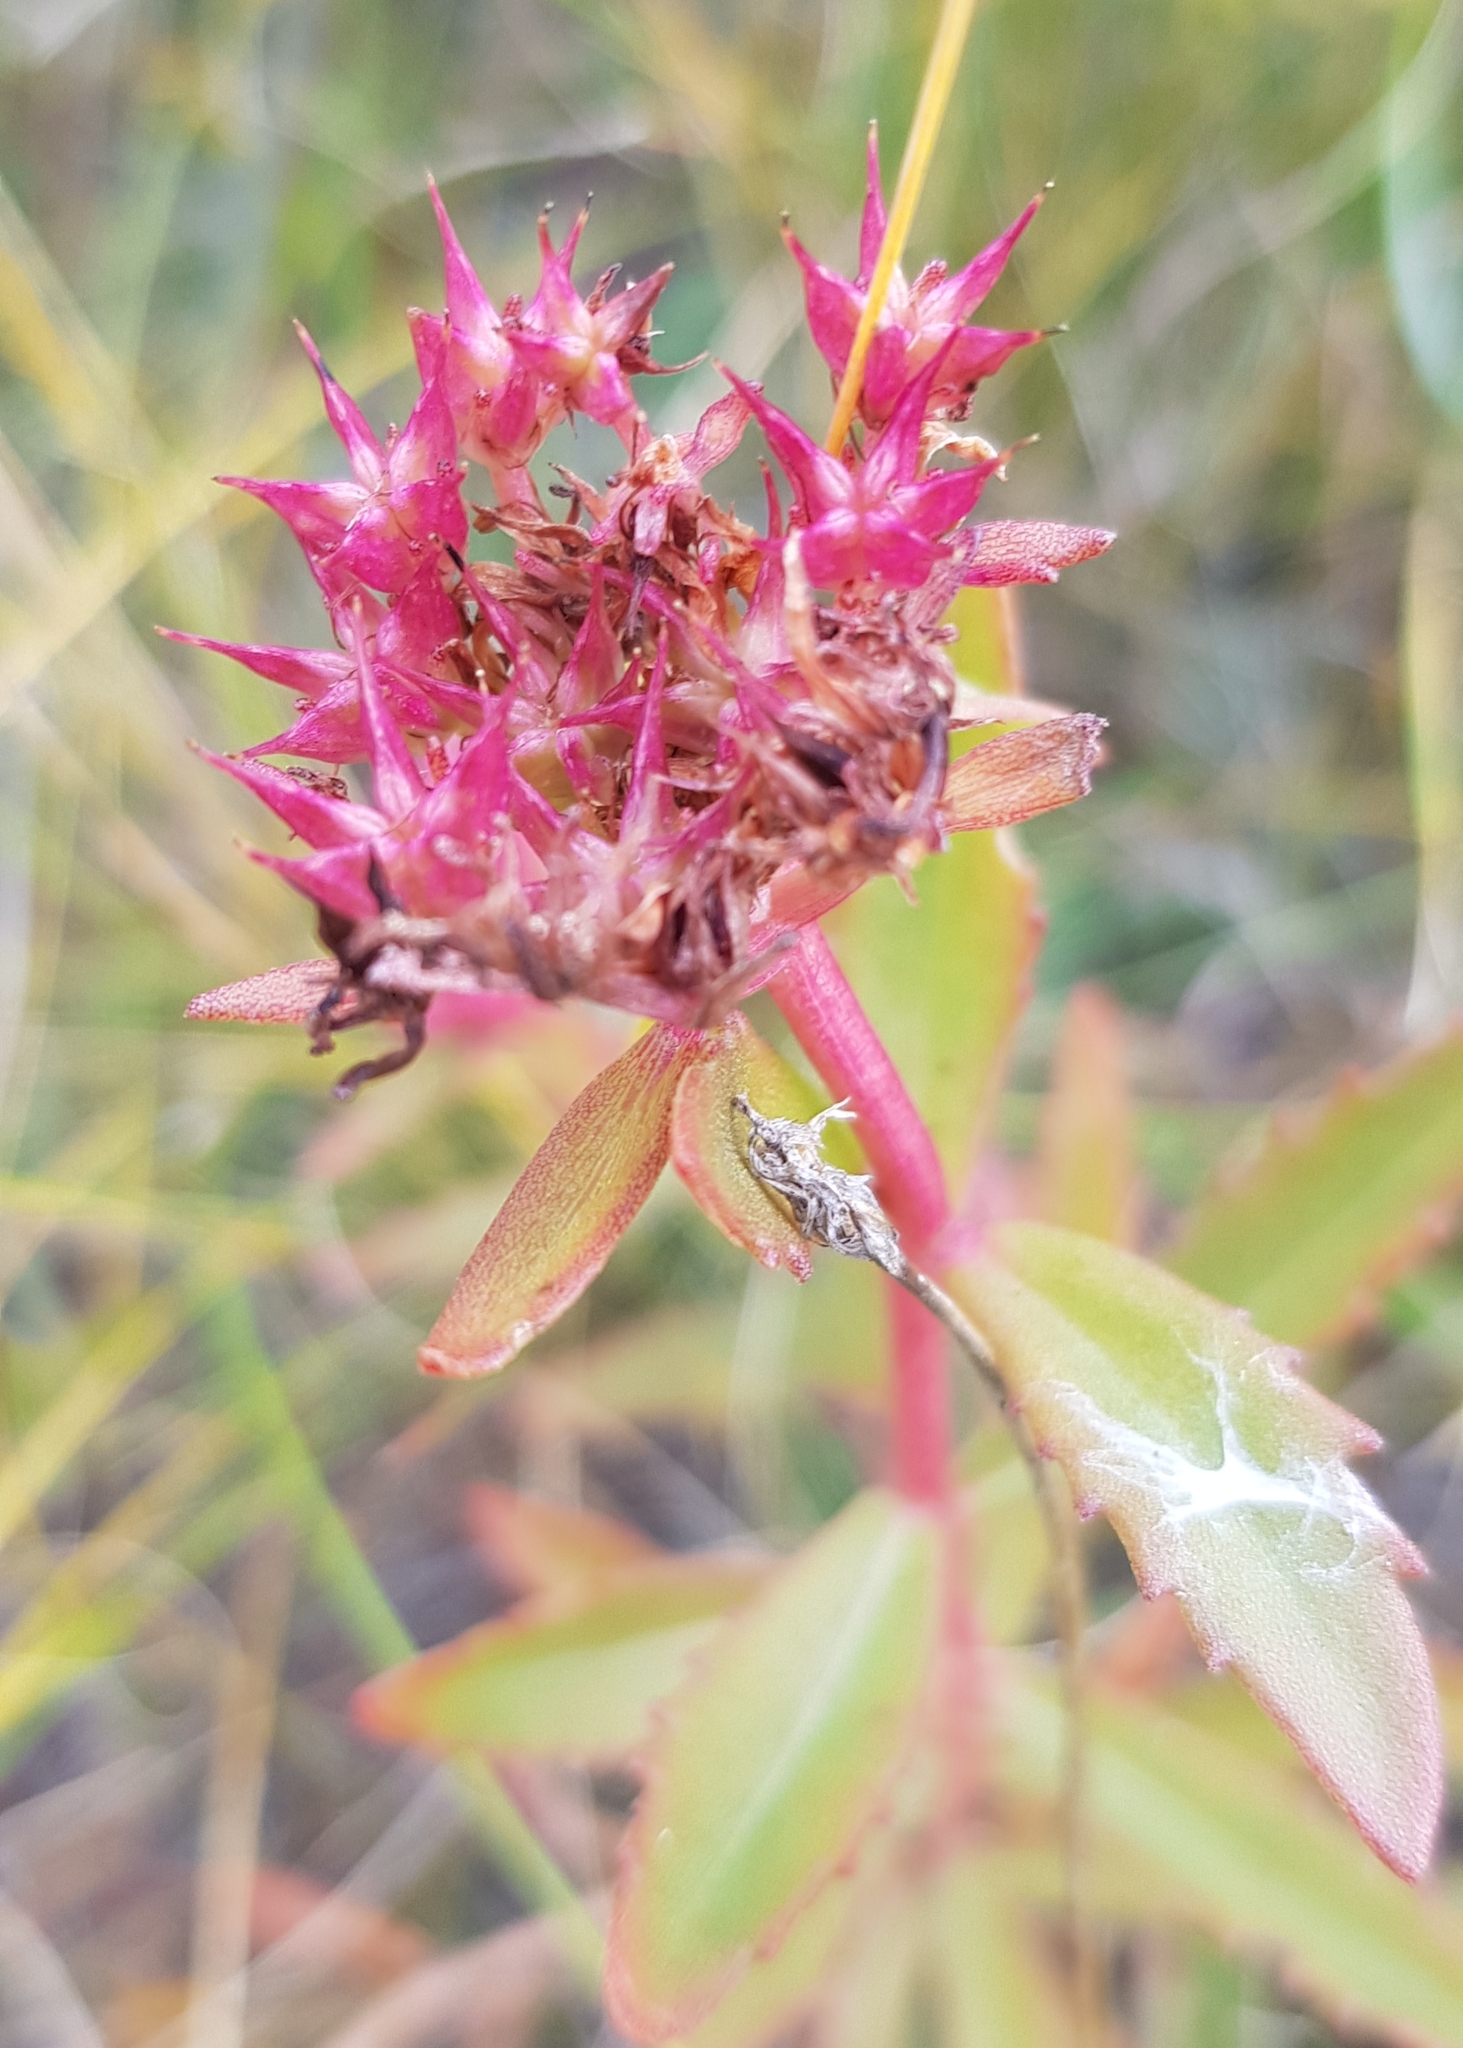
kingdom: Plantae
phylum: Tracheophyta
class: Magnoliopsida
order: Saxifragales
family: Crassulaceae
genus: Phedimus
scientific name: Phedimus aizoon
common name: Orpin aizoon
